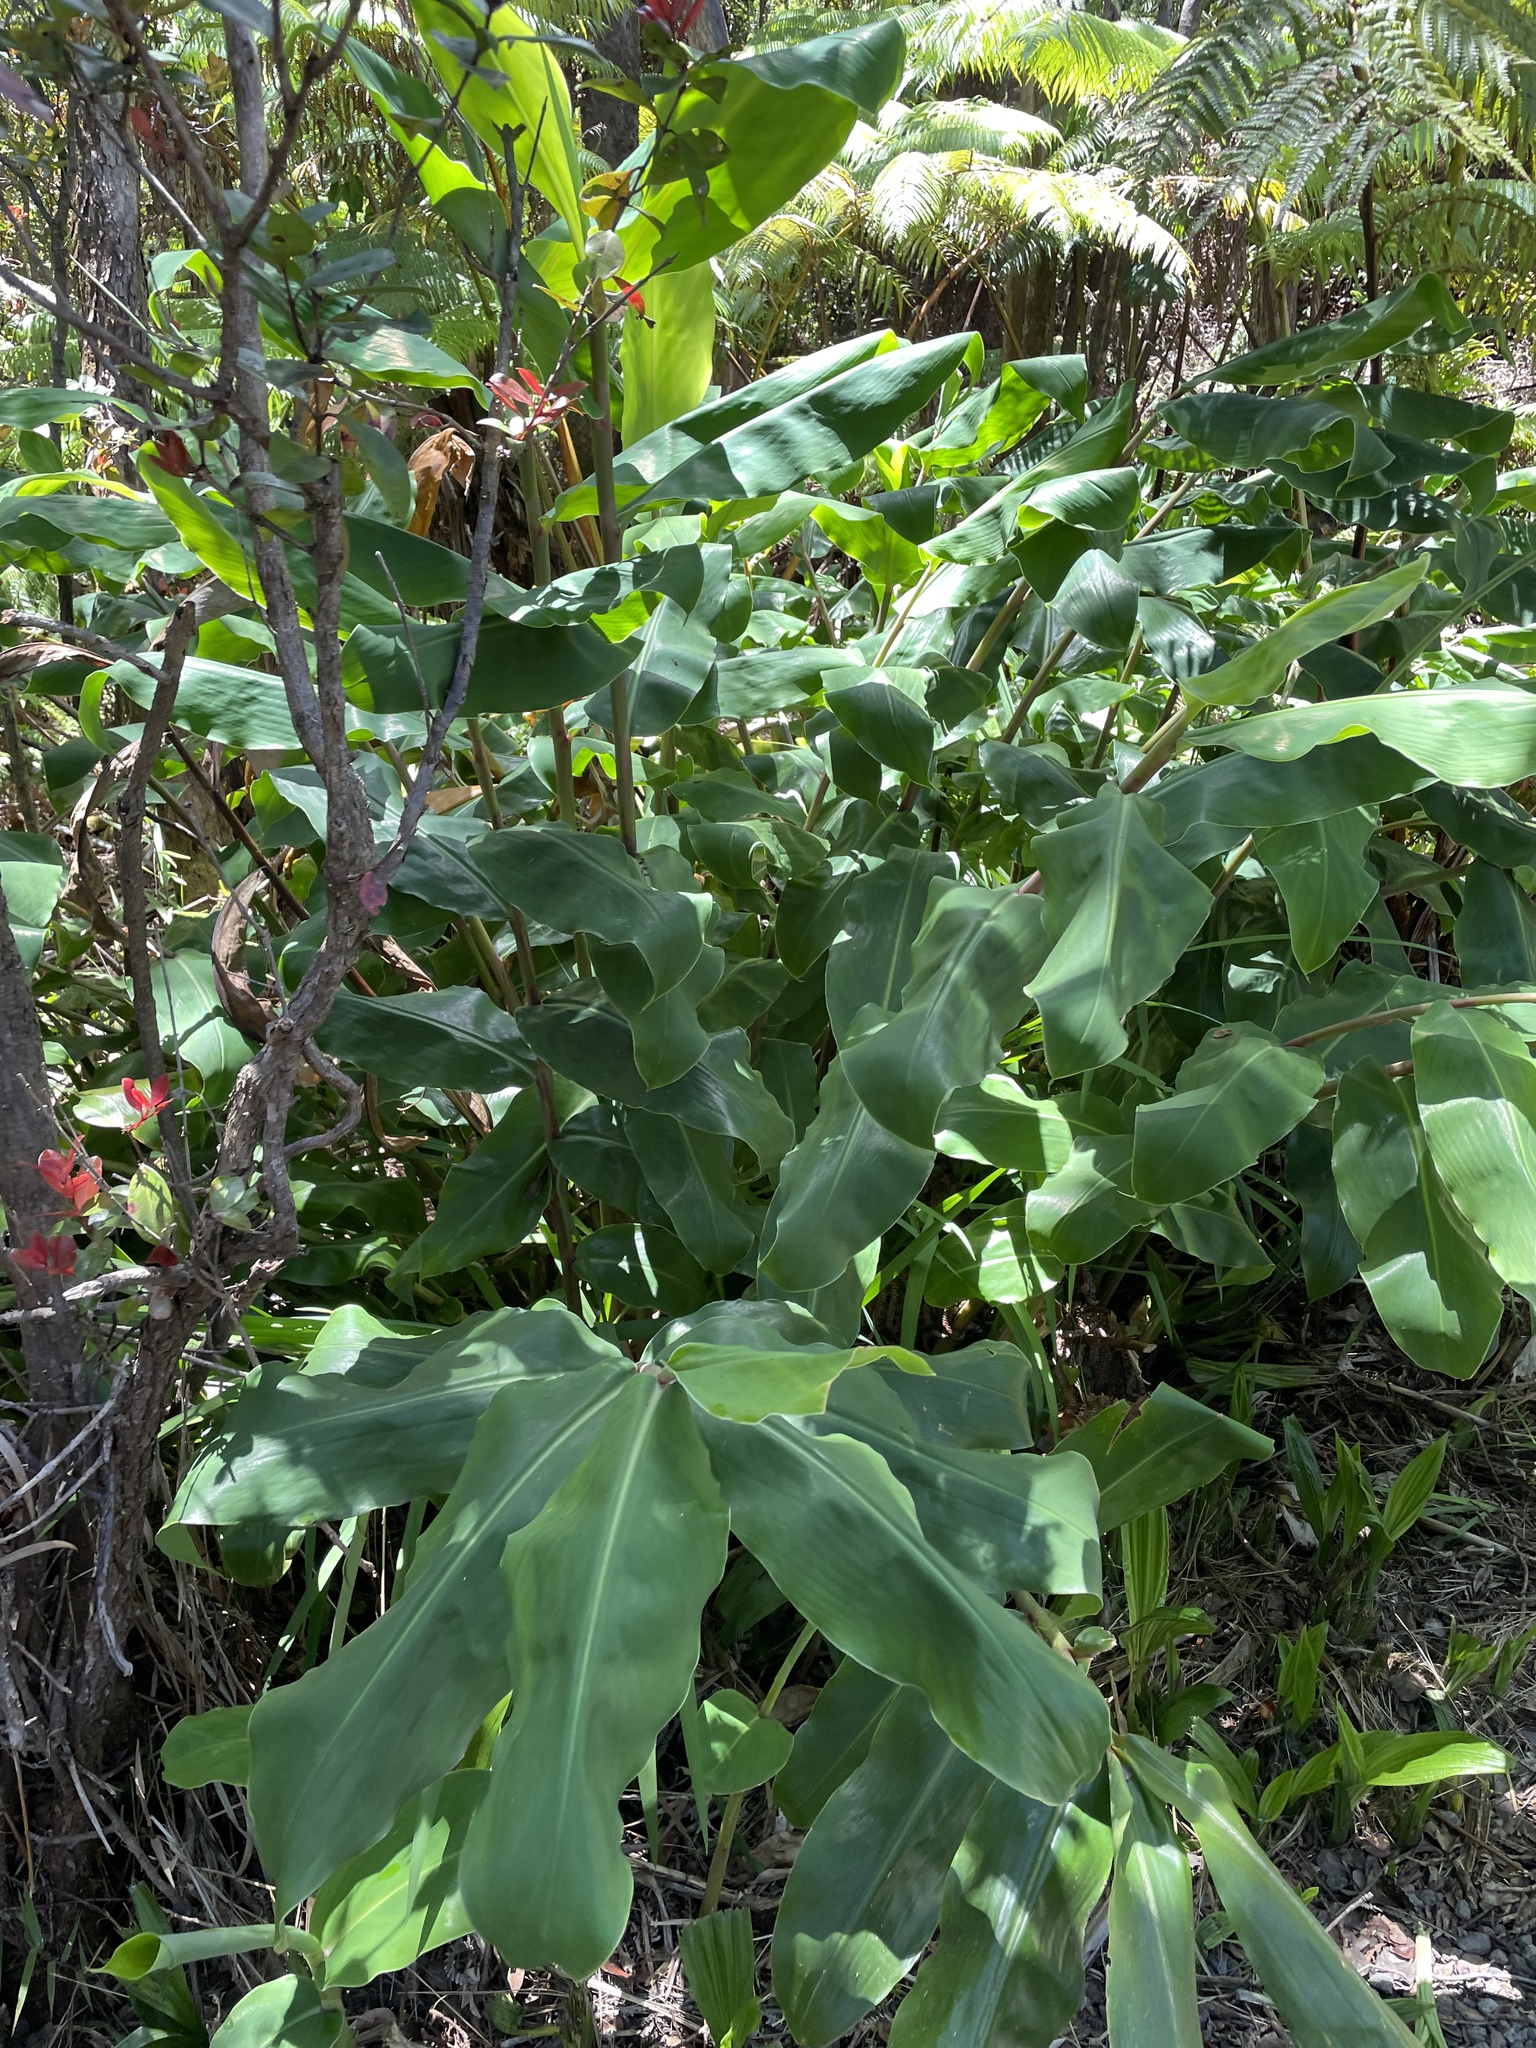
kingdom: Plantae
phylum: Tracheophyta
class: Liliopsida
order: Zingiberales
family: Zingiberaceae
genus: Hedychium
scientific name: Hedychium gardnerianum
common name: Himalayan ginger
